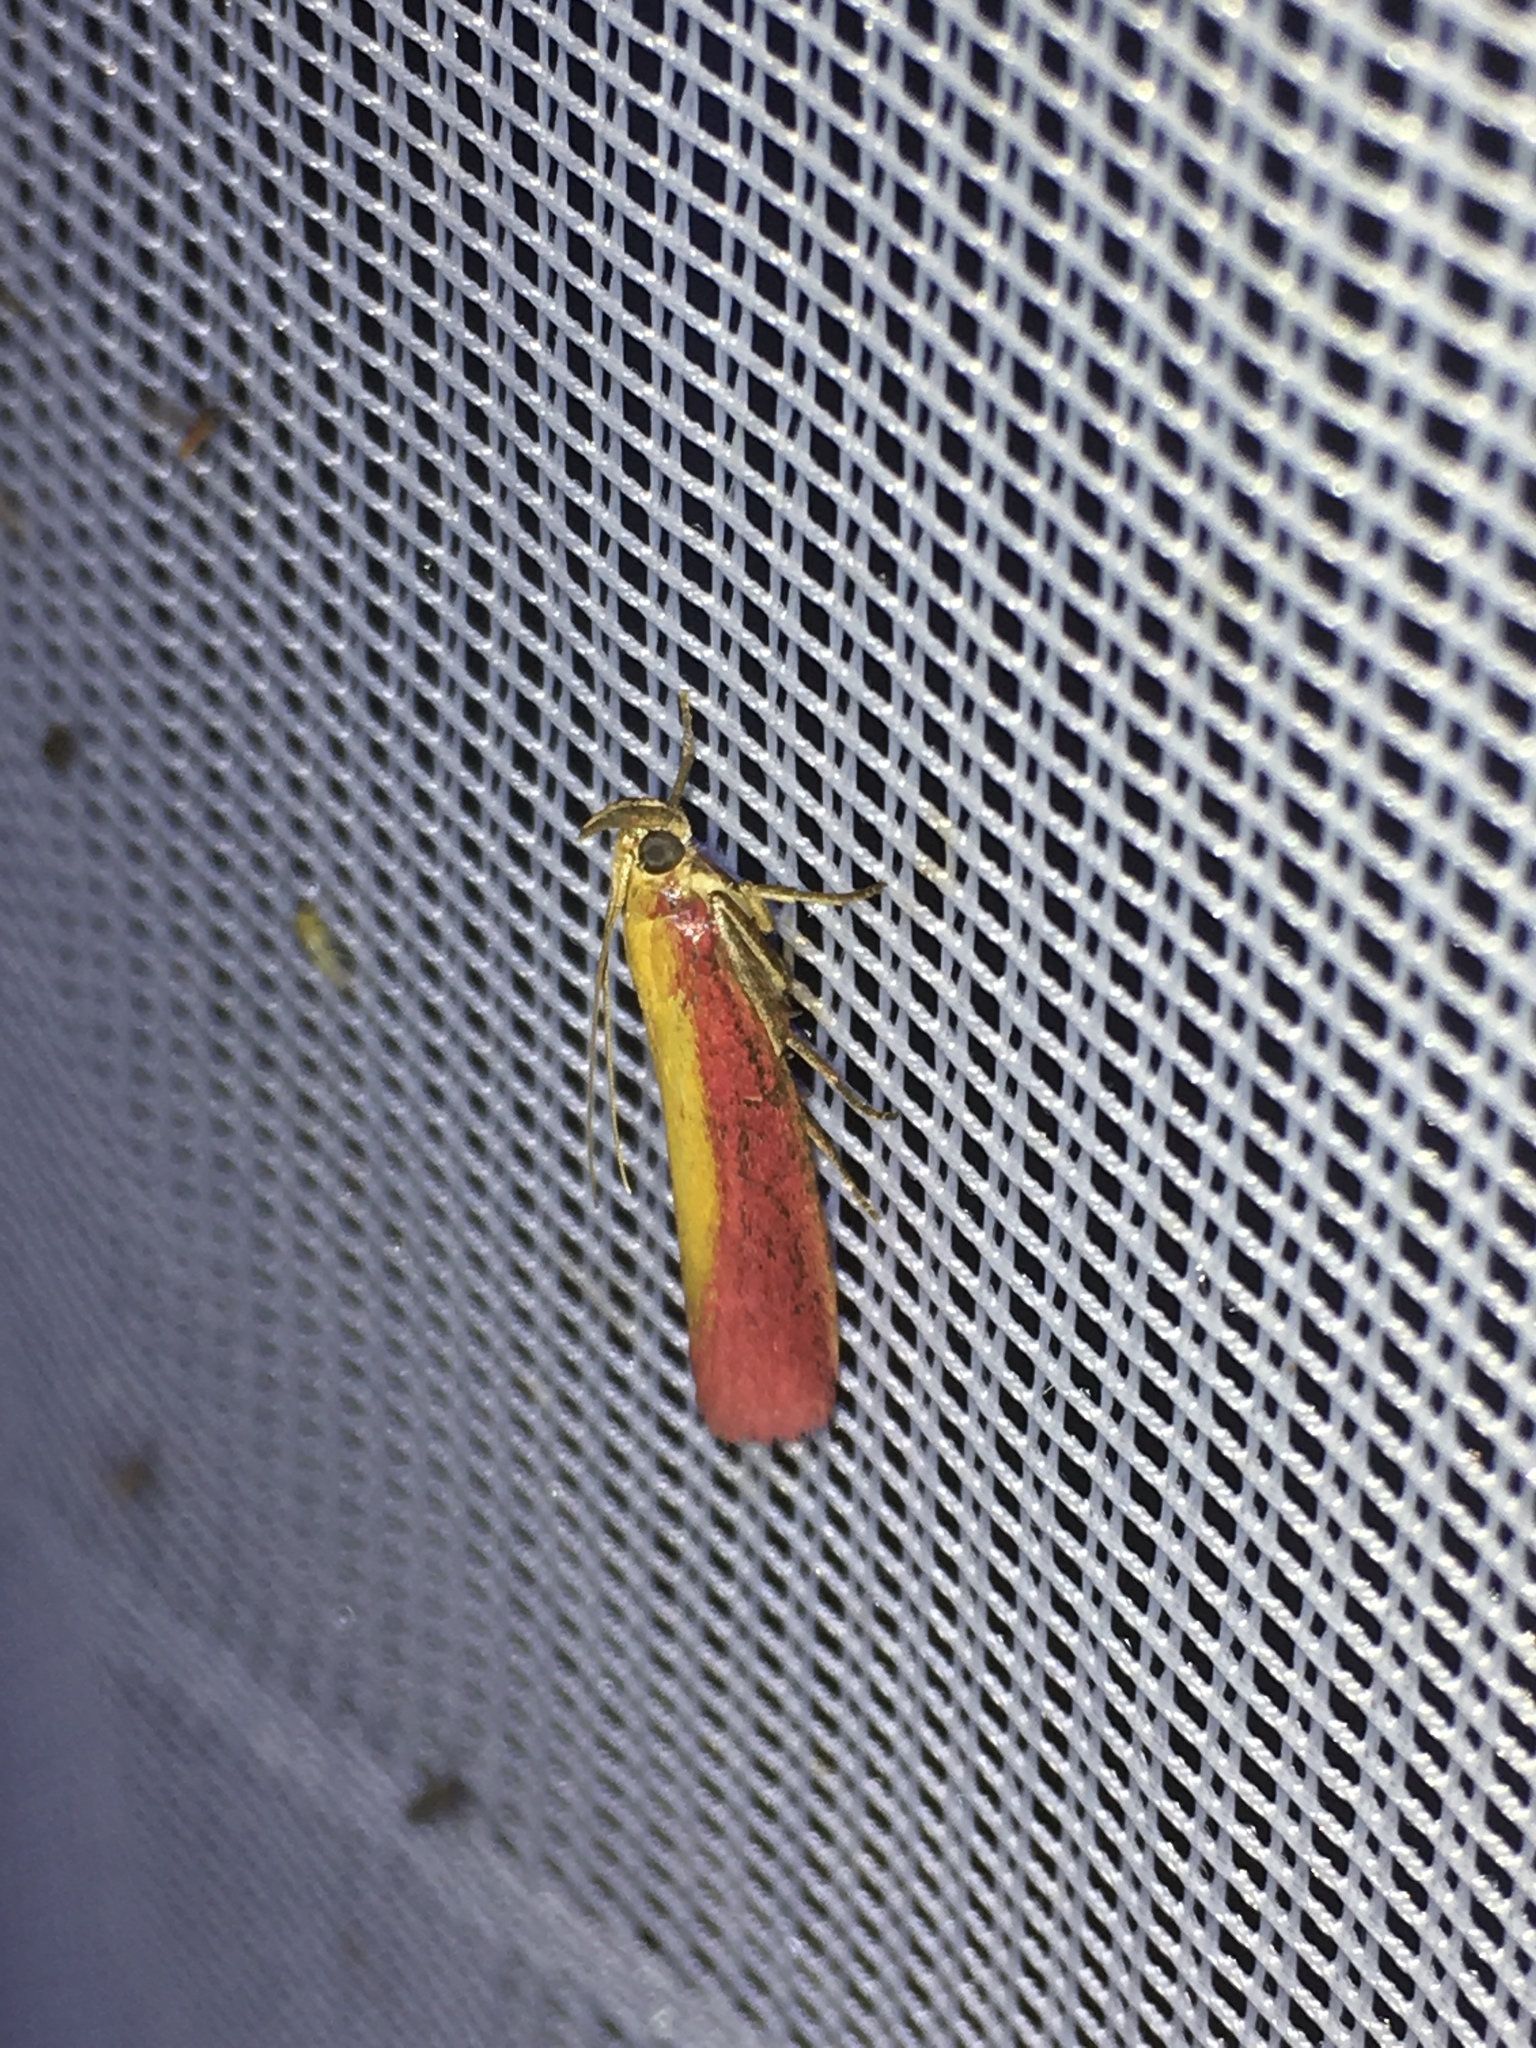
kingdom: Animalia
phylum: Arthropoda
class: Insecta
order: Lepidoptera
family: Pyralidae
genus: Oncocera
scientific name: Oncocera semirubella
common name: Rosy-striped knot-horn
